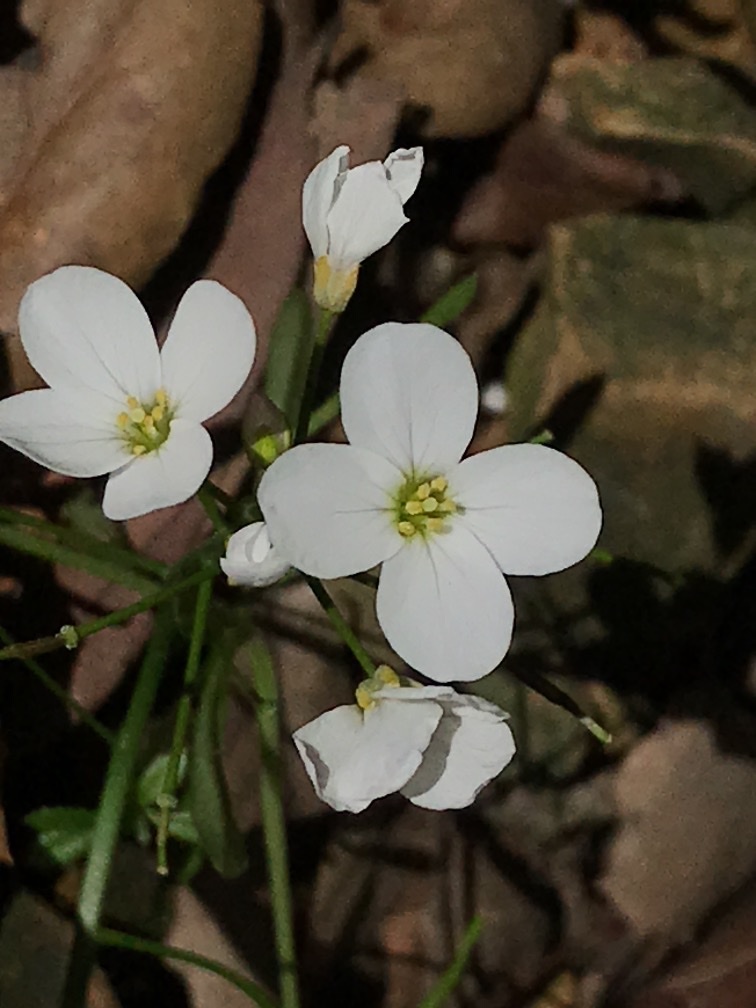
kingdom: Plantae
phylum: Tracheophyta
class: Magnoliopsida
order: Brassicales
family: Brassicaceae
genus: Cardamine
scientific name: Cardamine californica
